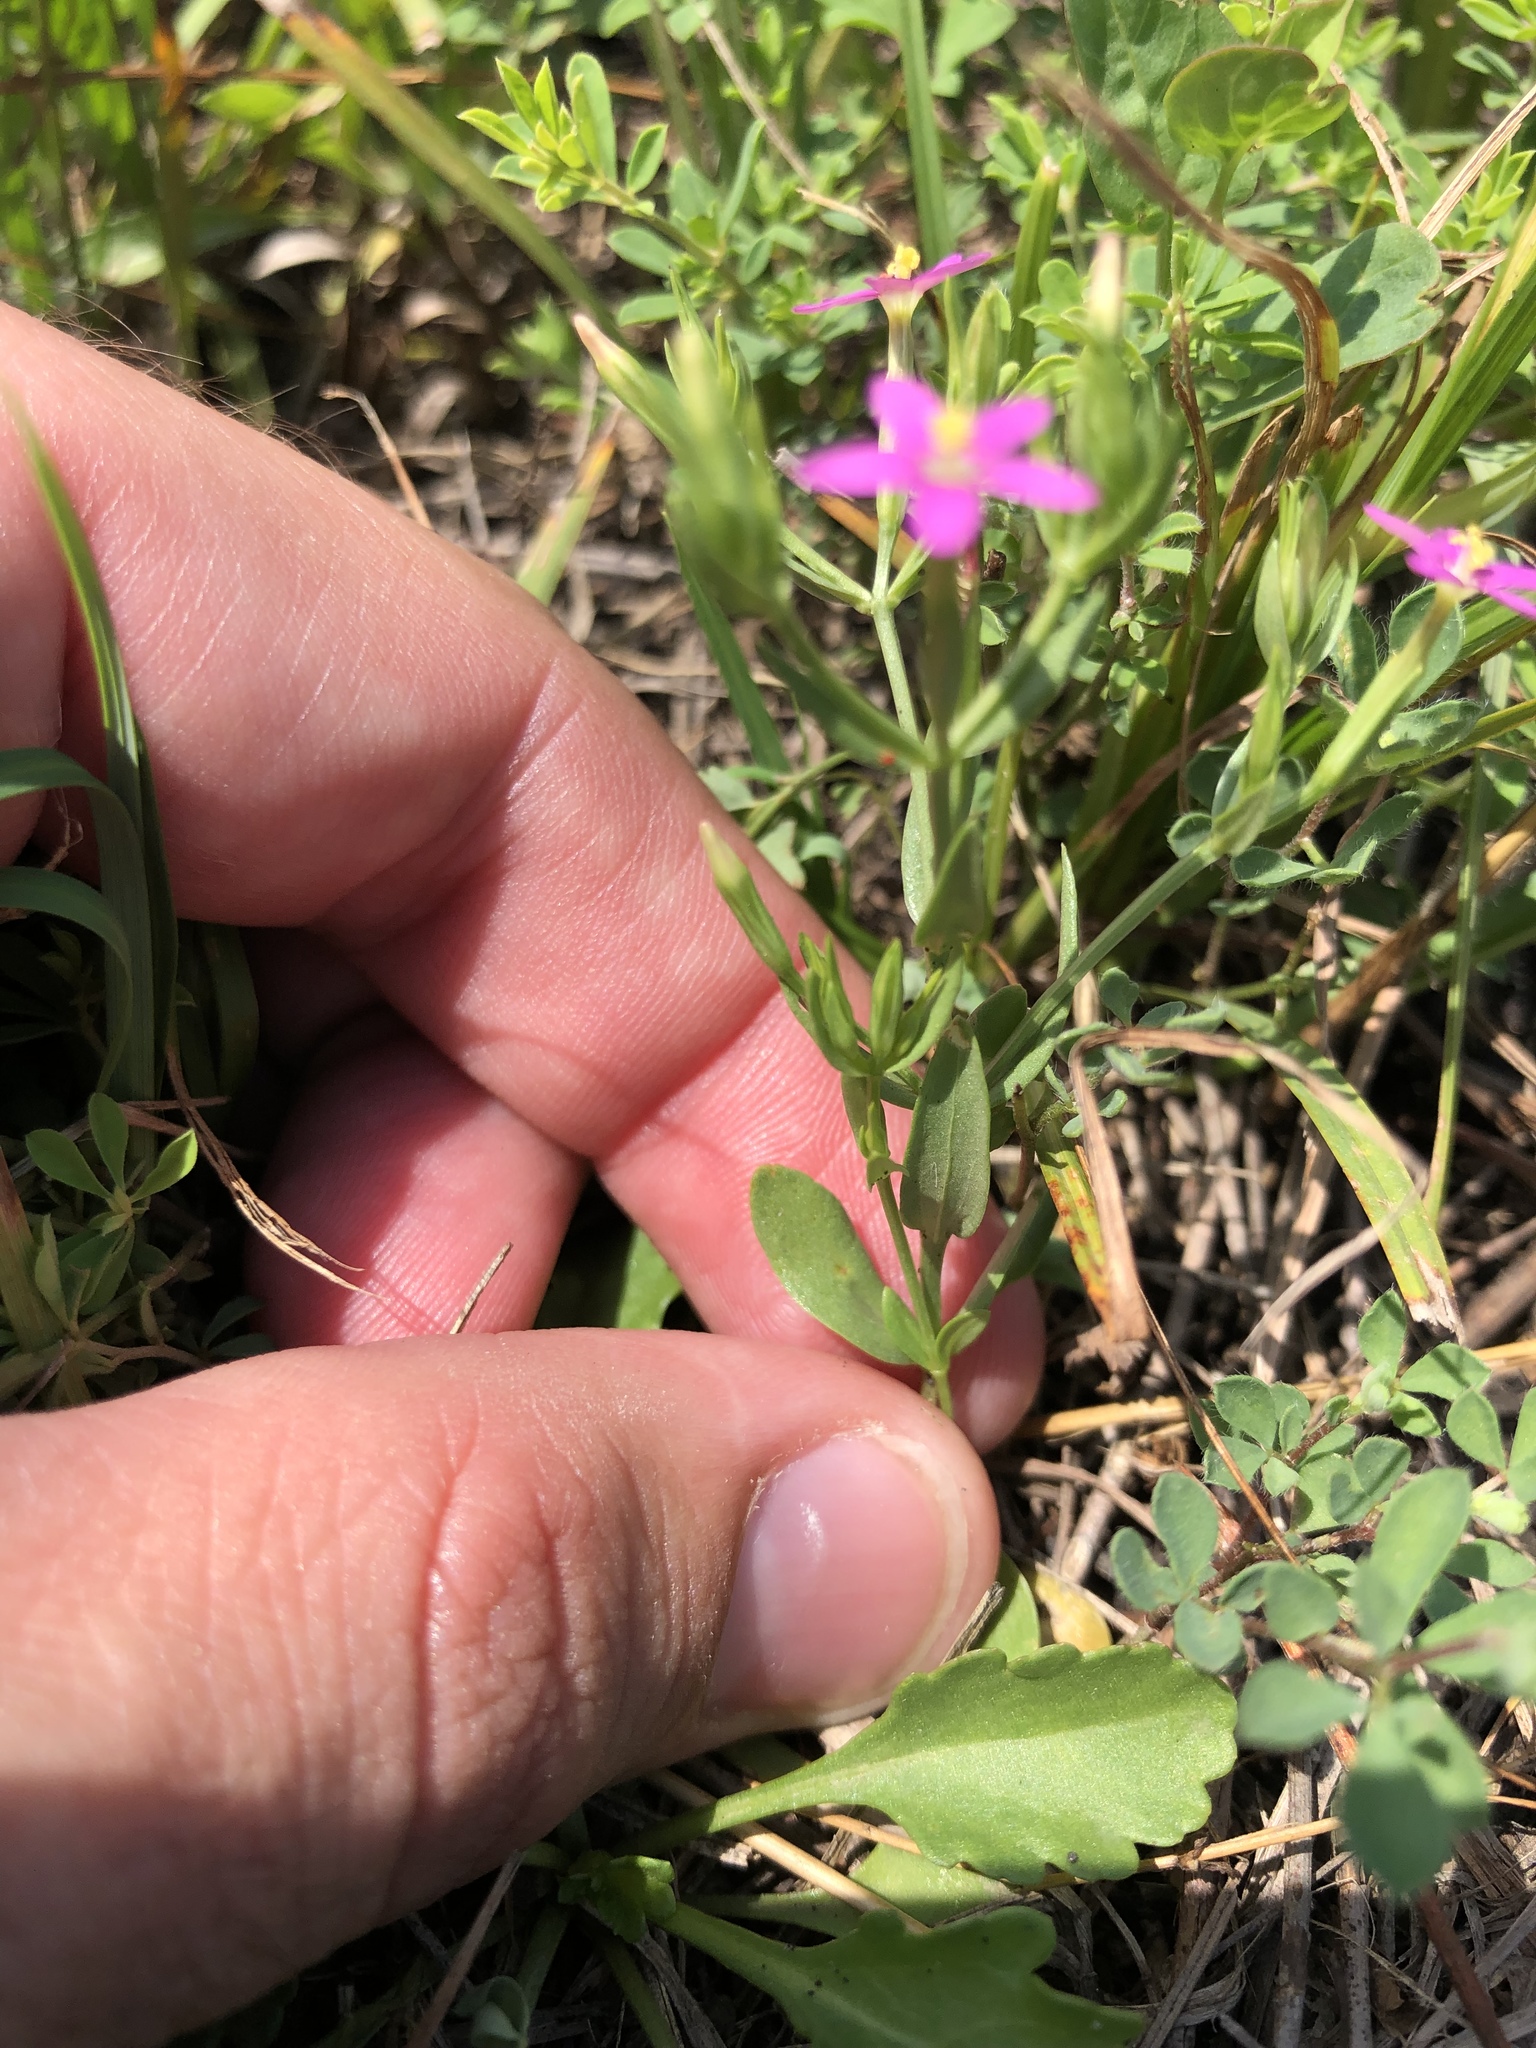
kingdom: Plantae
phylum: Tracheophyta
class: Magnoliopsida
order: Gentianales
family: Gentianaceae
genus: Centaurium
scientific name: Centaurium pulchellum
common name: Lesser centaury
